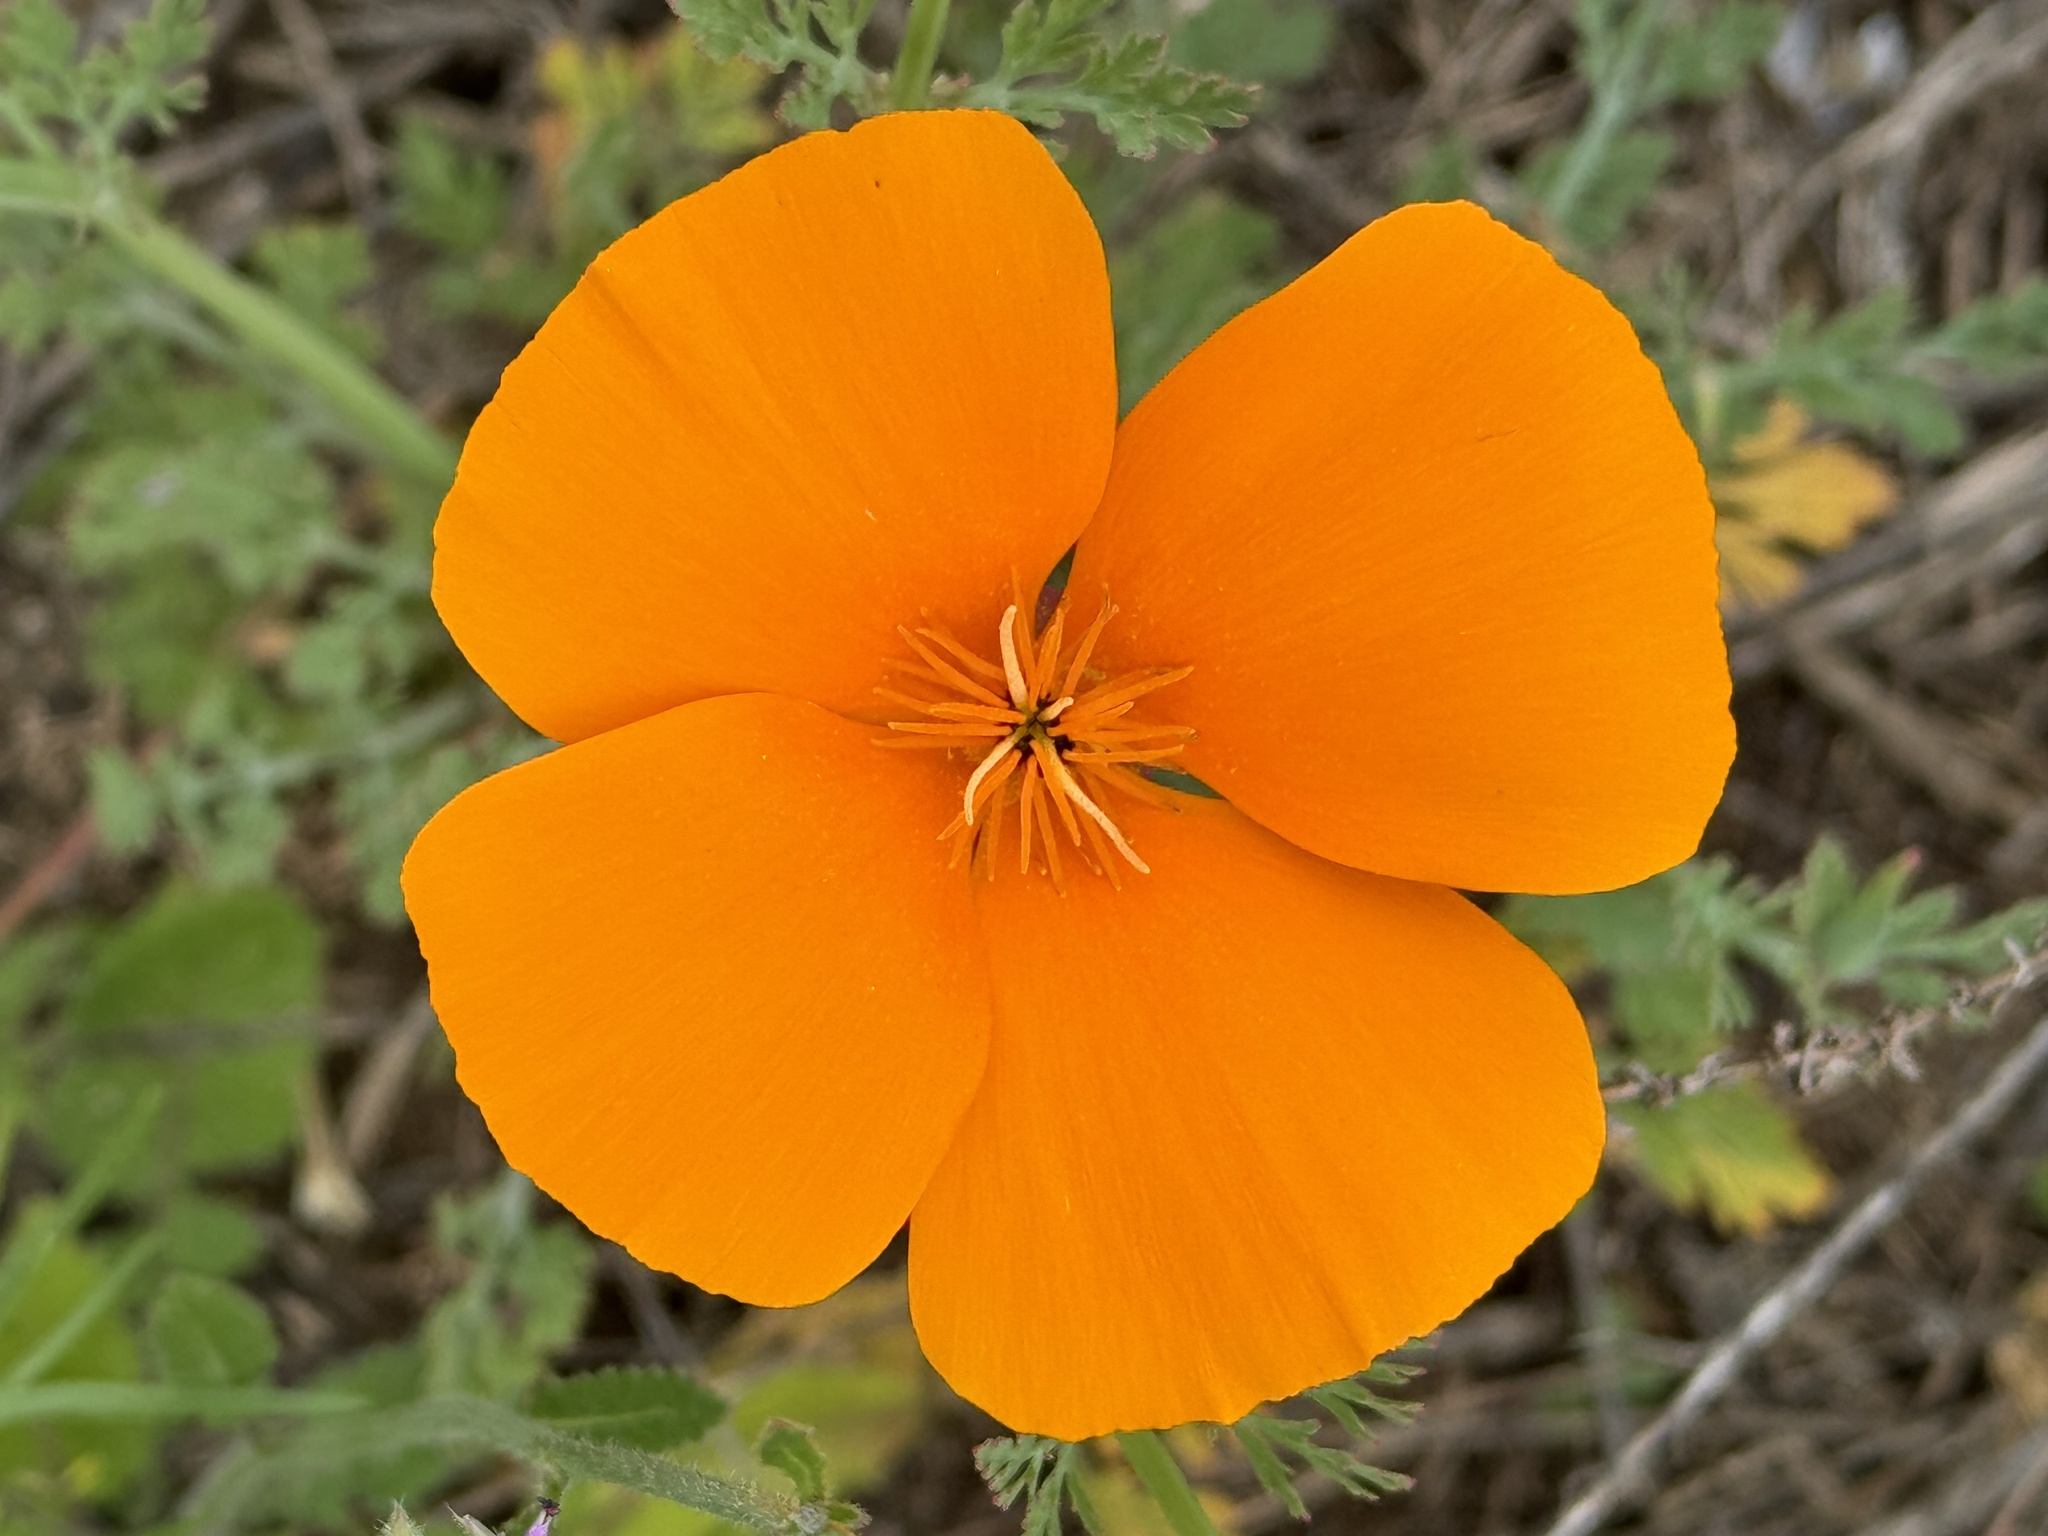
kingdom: Plantae
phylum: Tracheophyta
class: Magnoliopsida
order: Ranunculales
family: Papaveraceae
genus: Eschscholzia
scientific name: Eschscholzia californica
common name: California poppy
